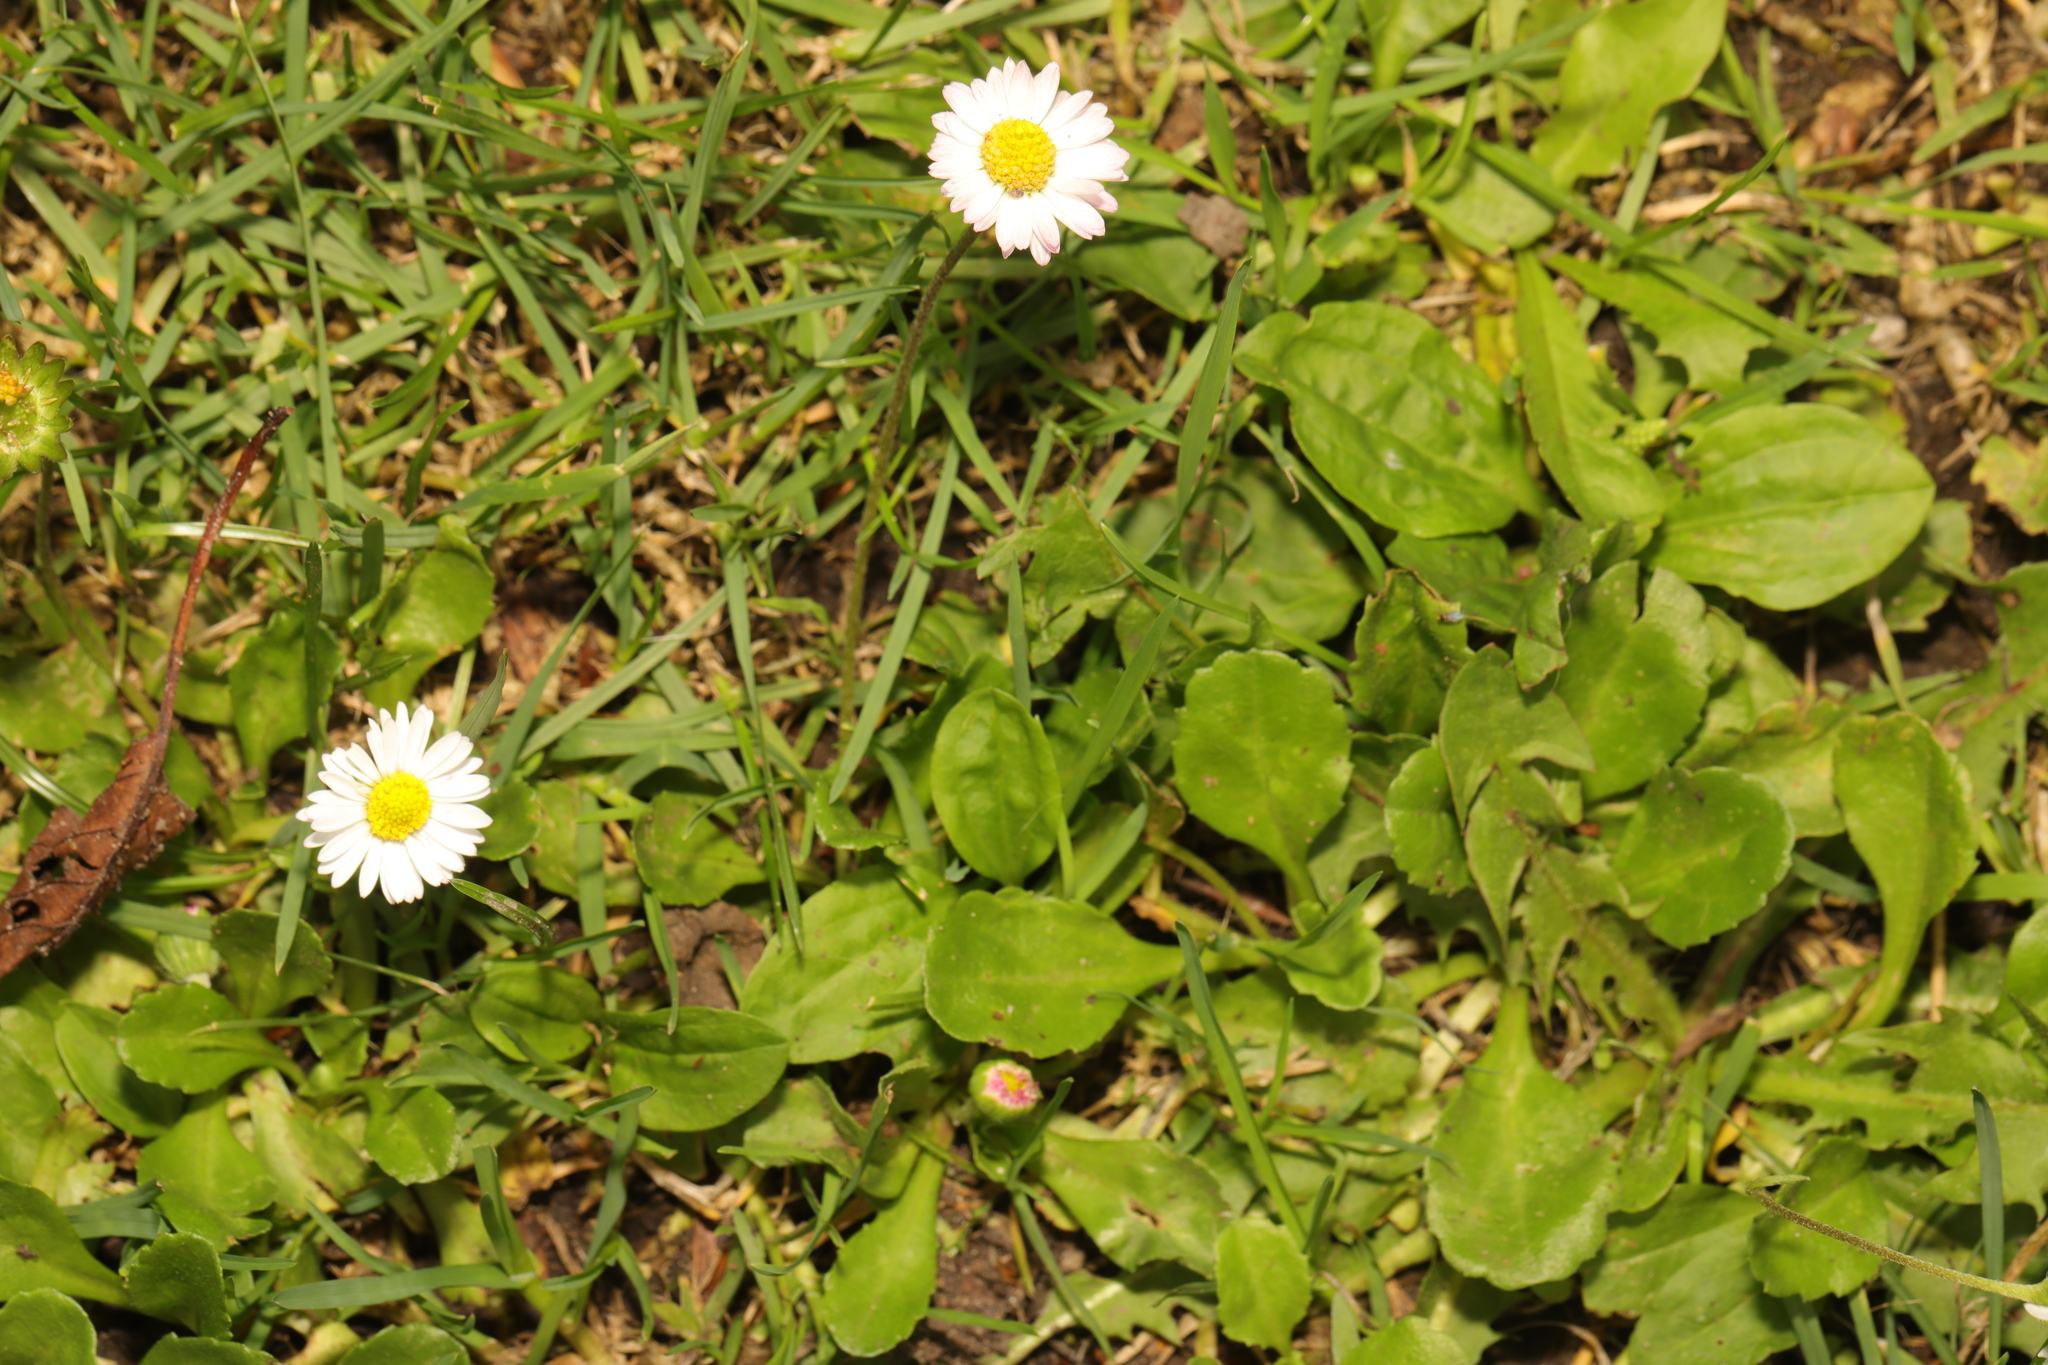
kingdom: Plantae
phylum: Tracheophyta
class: Magnoliopsida
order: Asterales
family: Asteraceae
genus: Bellis
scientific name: Bellis perennis
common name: Lawndaisy
